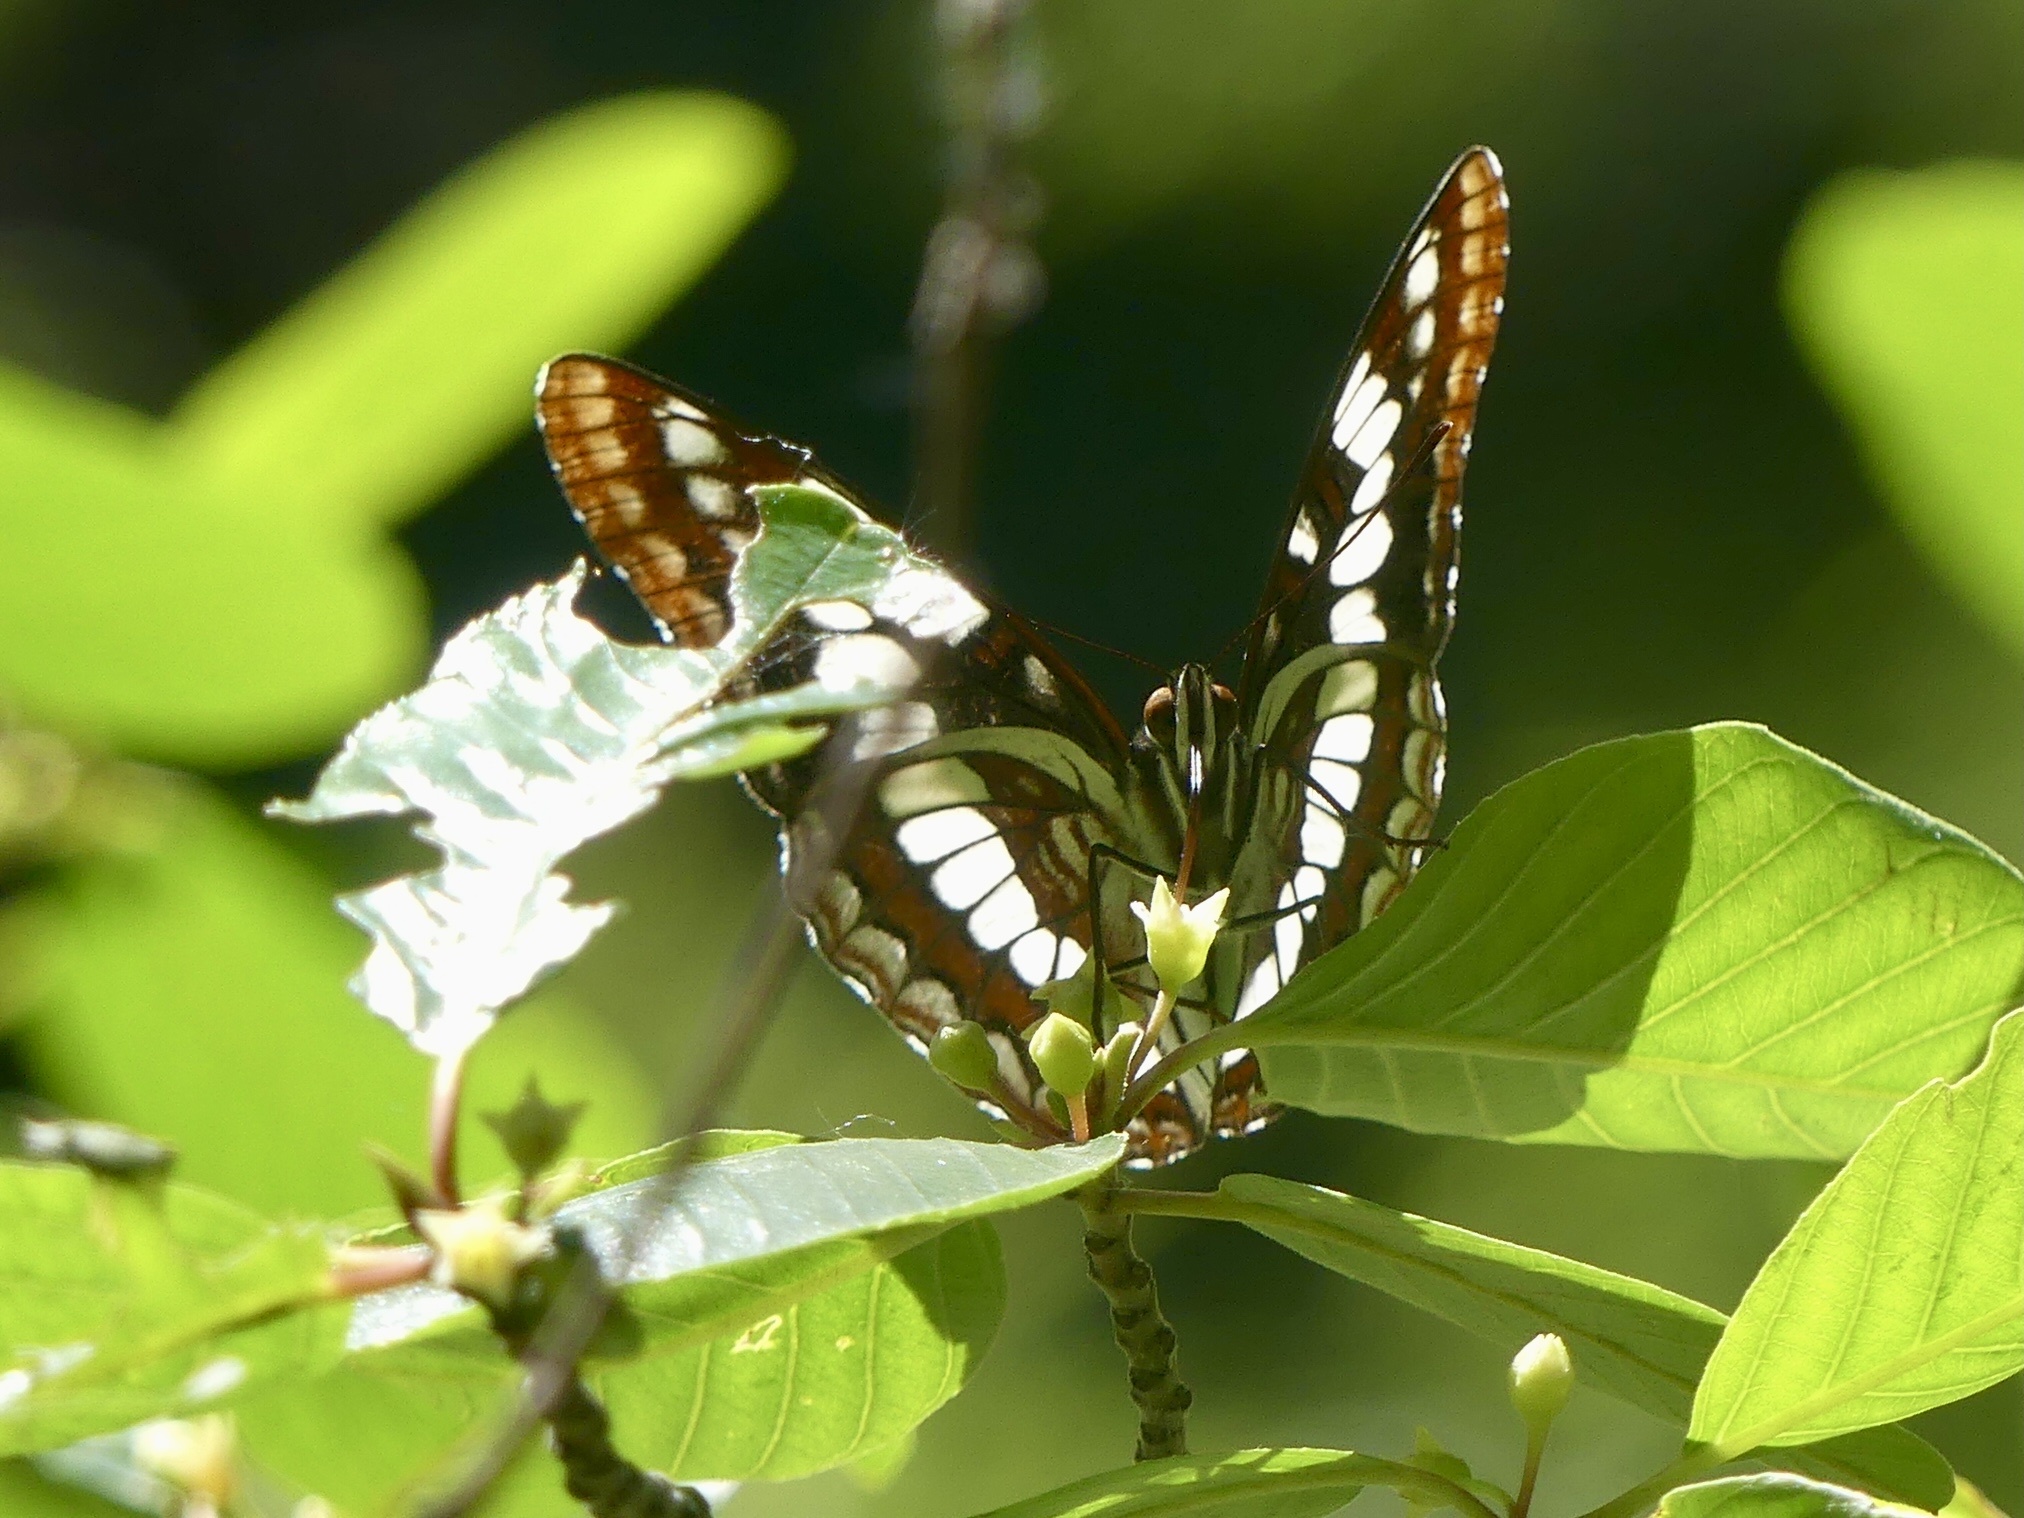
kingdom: Animalia
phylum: Arthropoda
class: Insecta
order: Lepidoptera
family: Nymphalidae
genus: Limenitis
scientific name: Limenitis lorquini
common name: Lorquin's admiral
